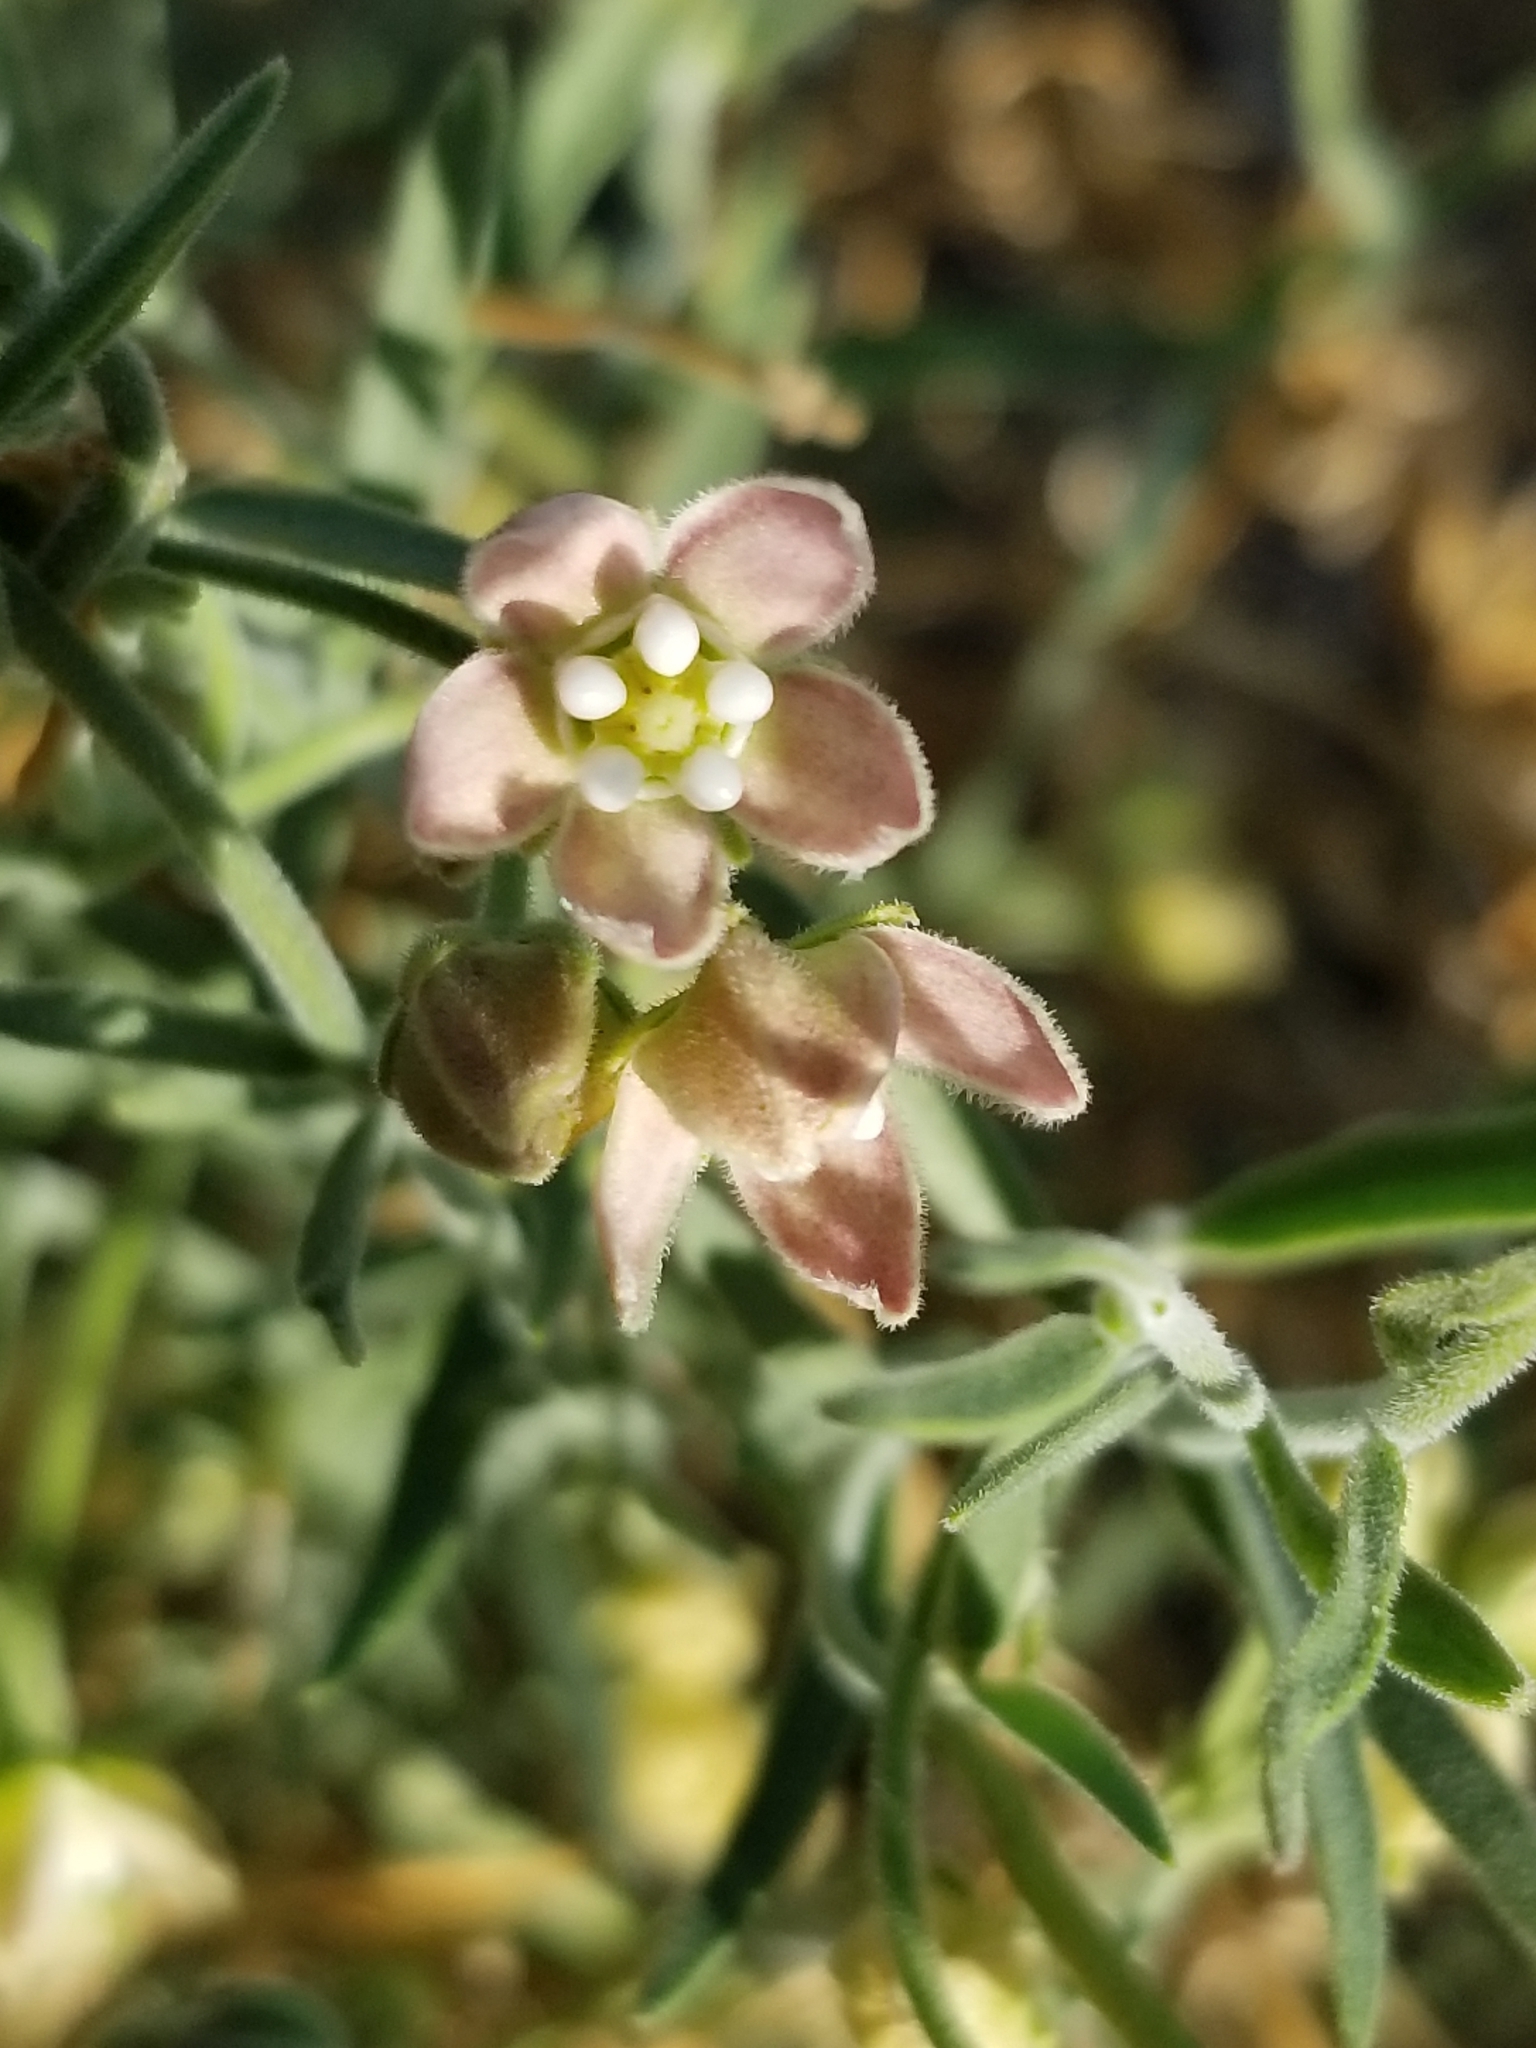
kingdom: Plantae
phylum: Tracheophyta
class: Magnoliopsida
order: Gentianales
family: Apocynaceae
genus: Funastrum
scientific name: Funastrum hirtellum
